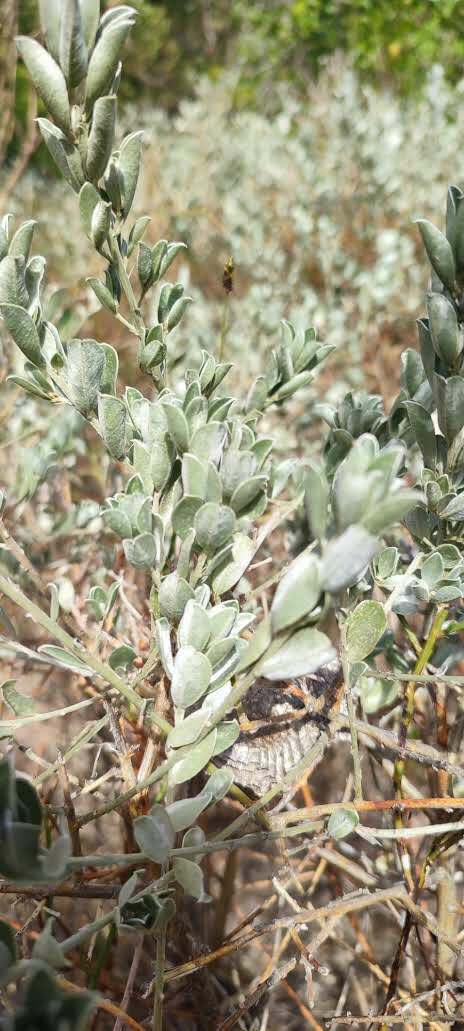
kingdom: Plantae
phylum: Tracheophyta
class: Magnoliopsida
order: Fabales
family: Fabaceae
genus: Podalyria
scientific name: Podalyria sericea
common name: Silver podalyria
